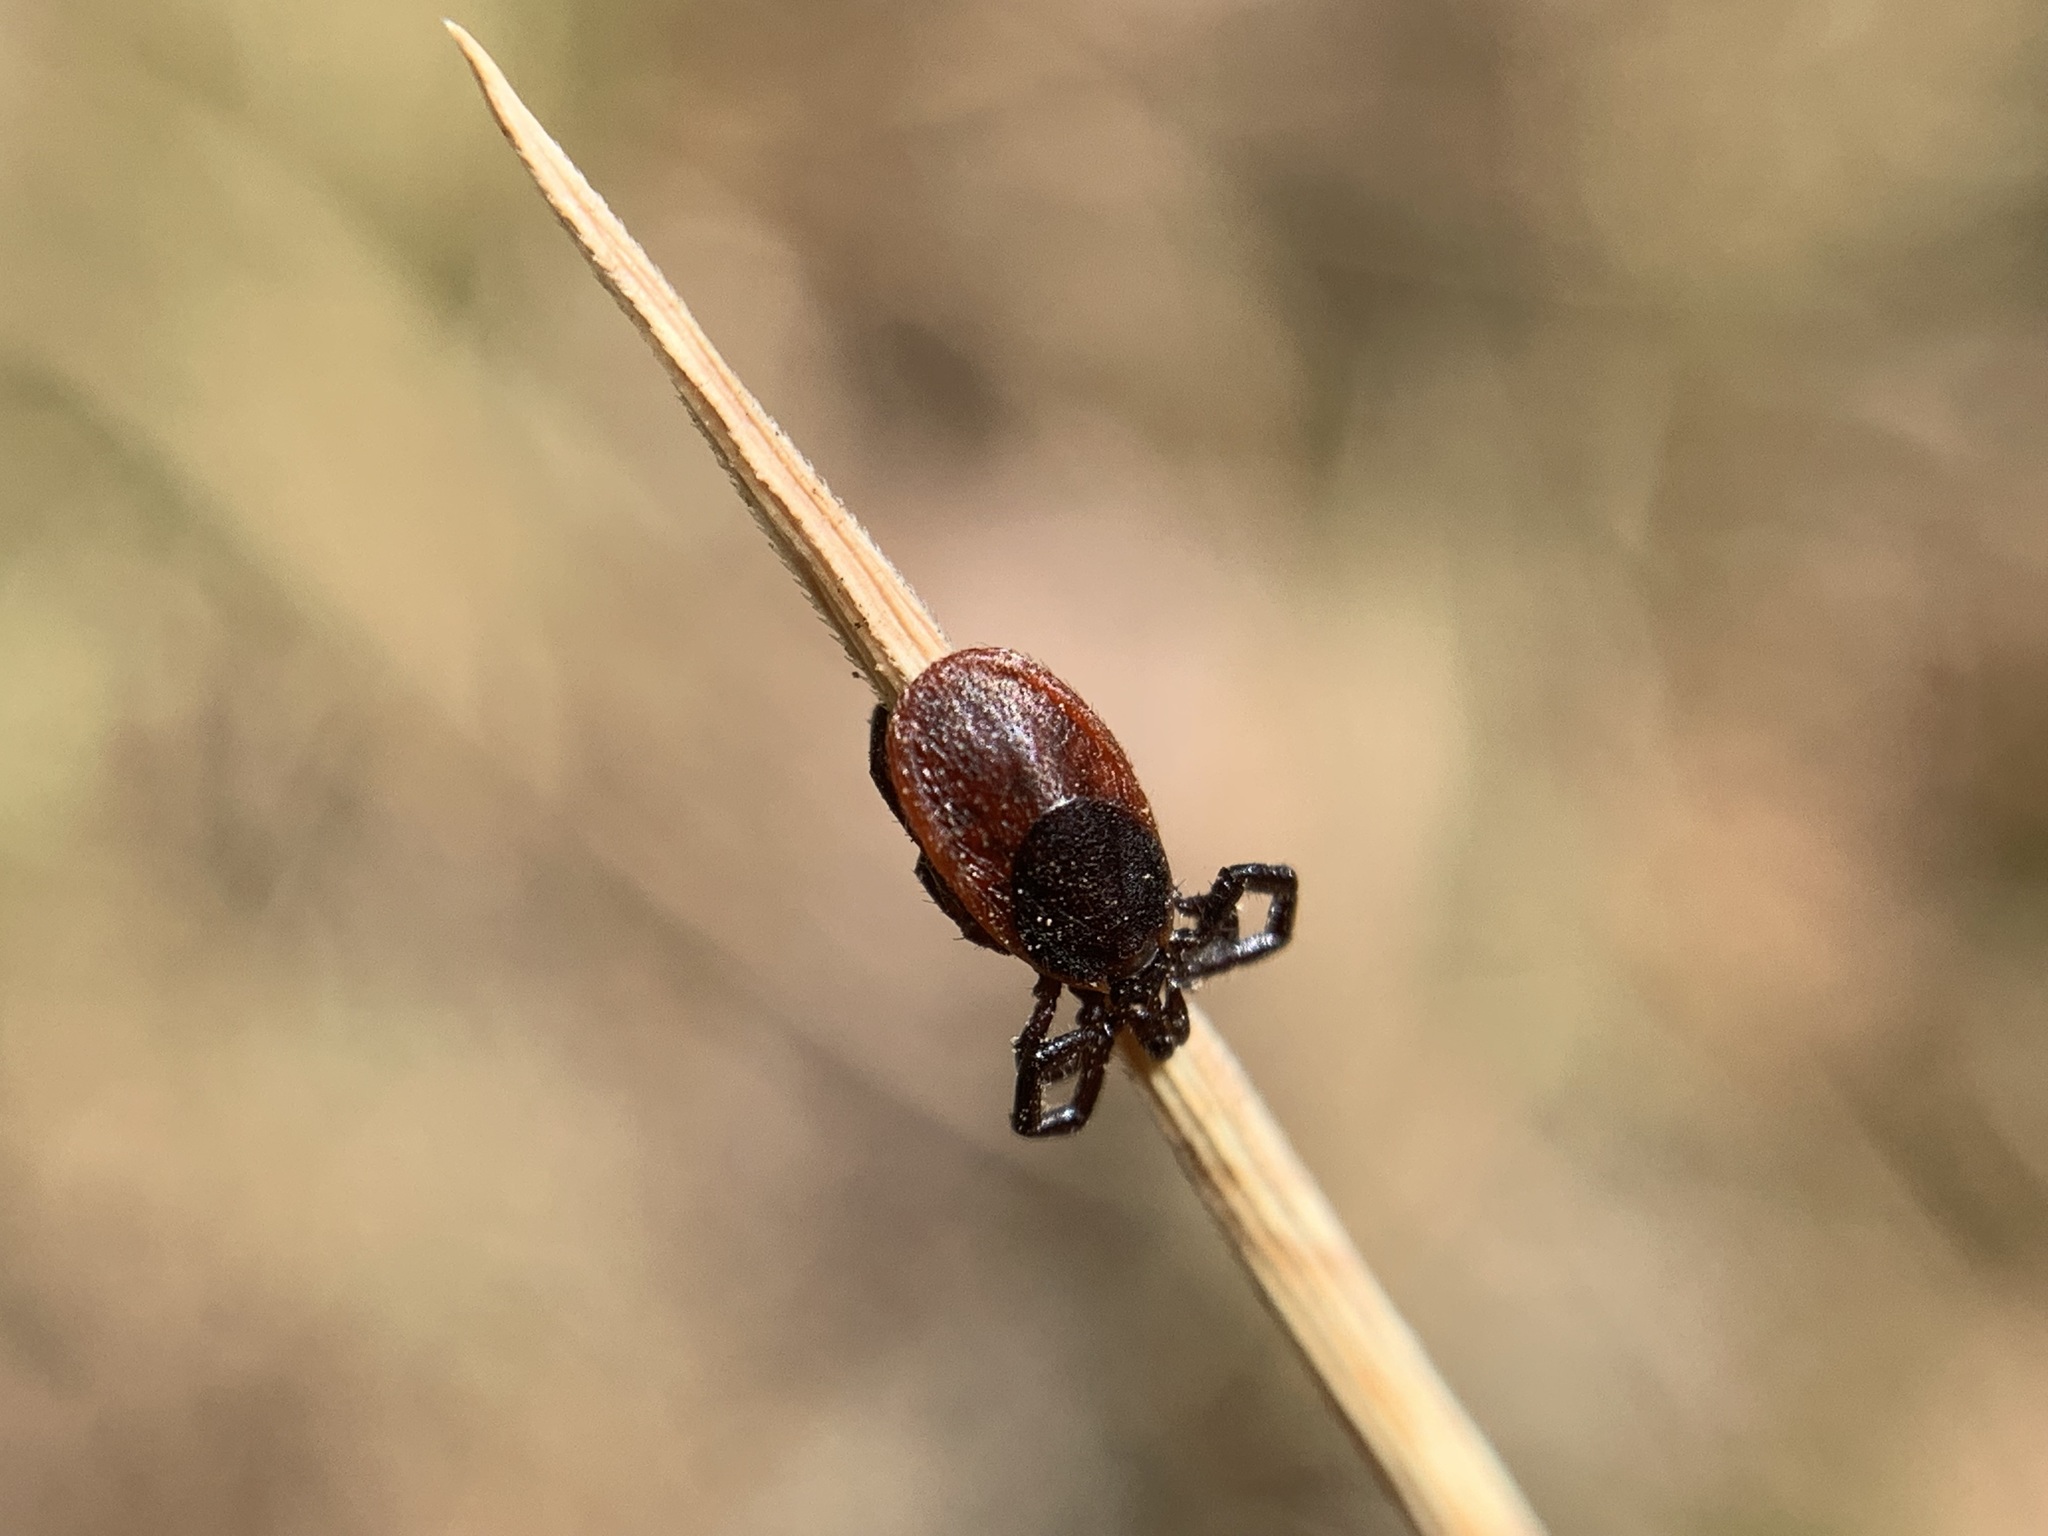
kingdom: Animalia
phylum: Arthropoda
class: Arachnida
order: Ixodida
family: Ixodidae
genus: Ixodes
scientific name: Ixodes pacificus
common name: California black-legged tick
